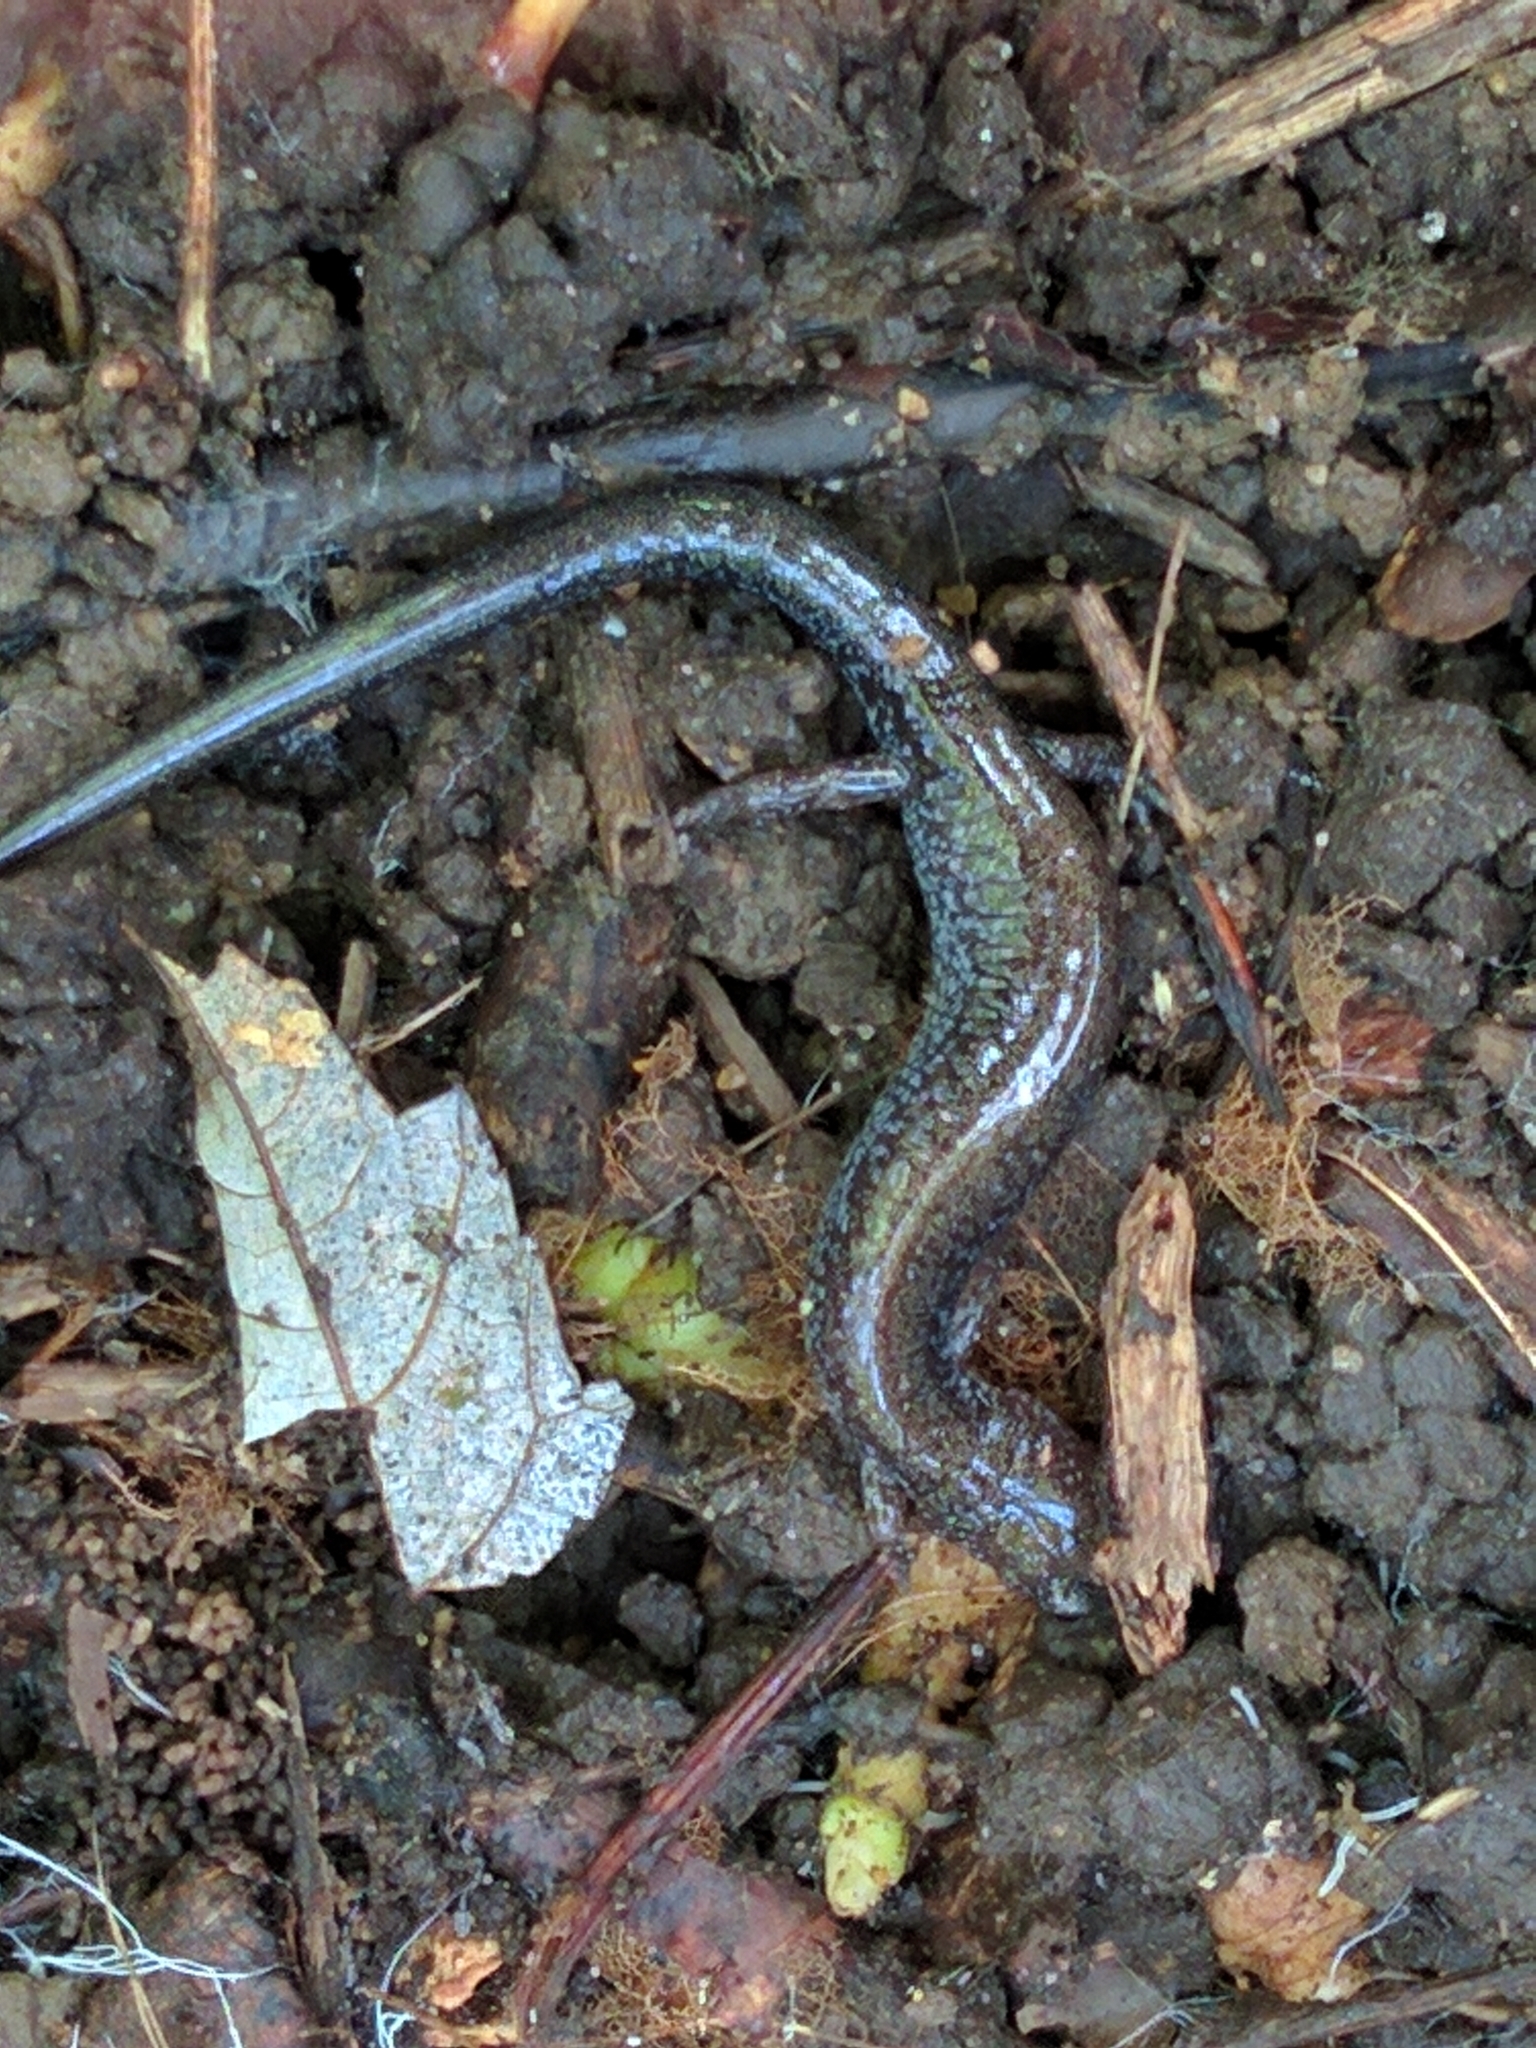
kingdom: Animalia
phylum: Chordata
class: Amphibia
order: Caudata
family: Plethodontidae
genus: Plethodon
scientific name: Plethodon cinereus
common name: Redback salamander
